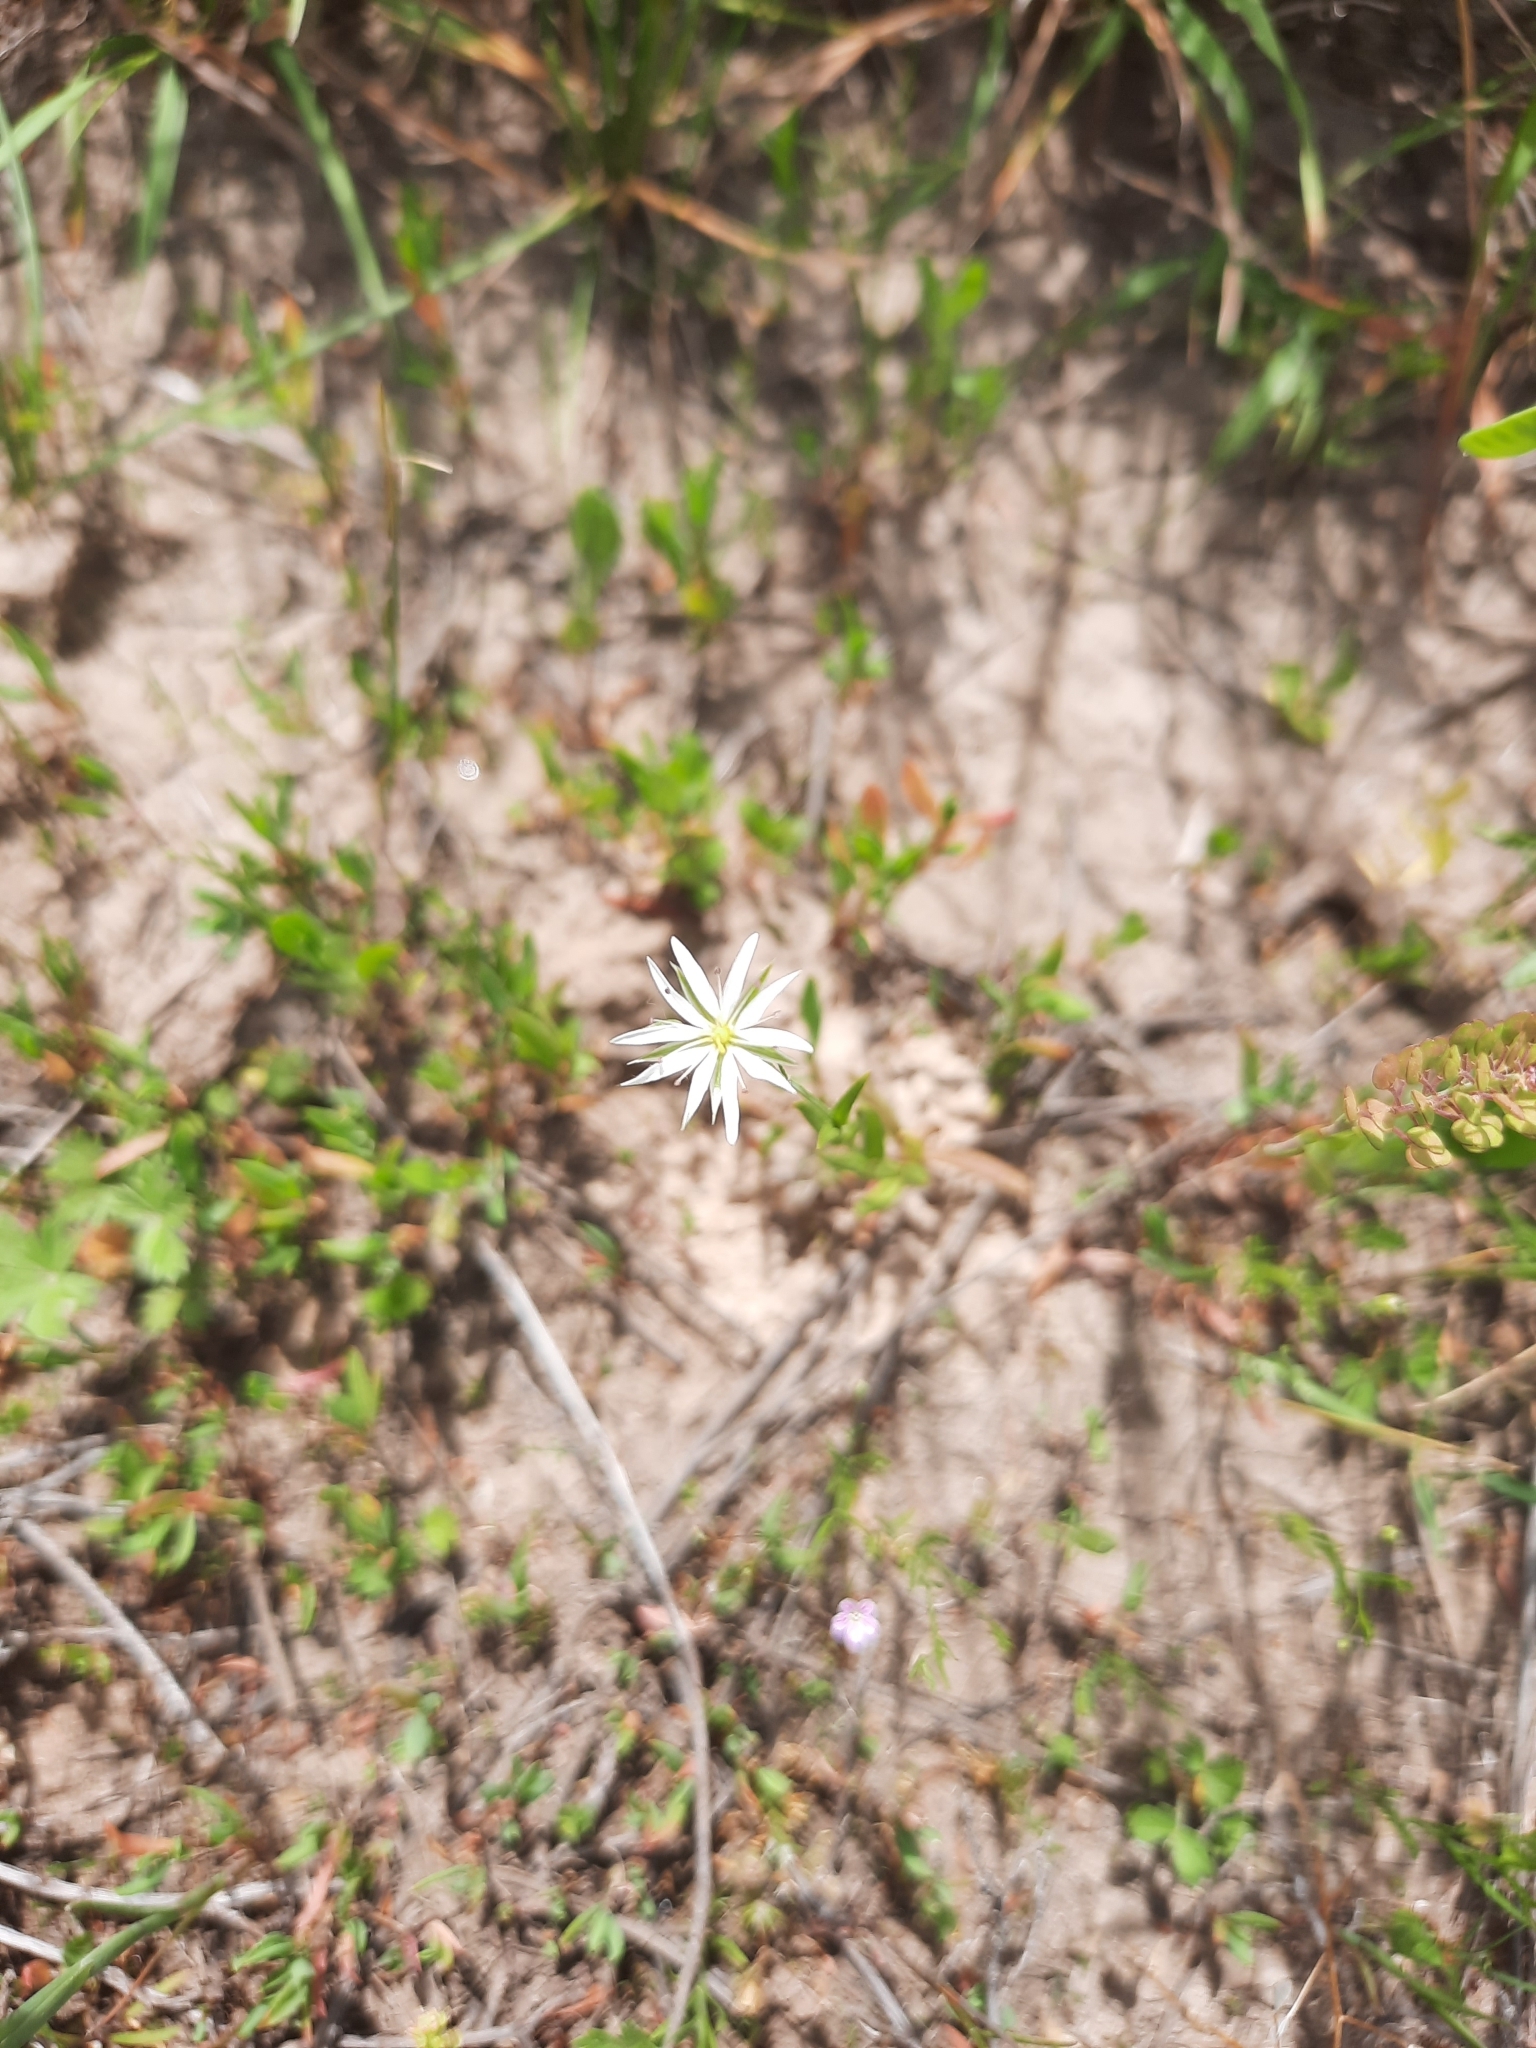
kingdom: Plantae
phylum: Tracheophyta
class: Magnoliopsida
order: Caryophyllales
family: Caryophyllaceae
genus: Stellaria
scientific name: Stellaria graminea
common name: Grass-like starwort
